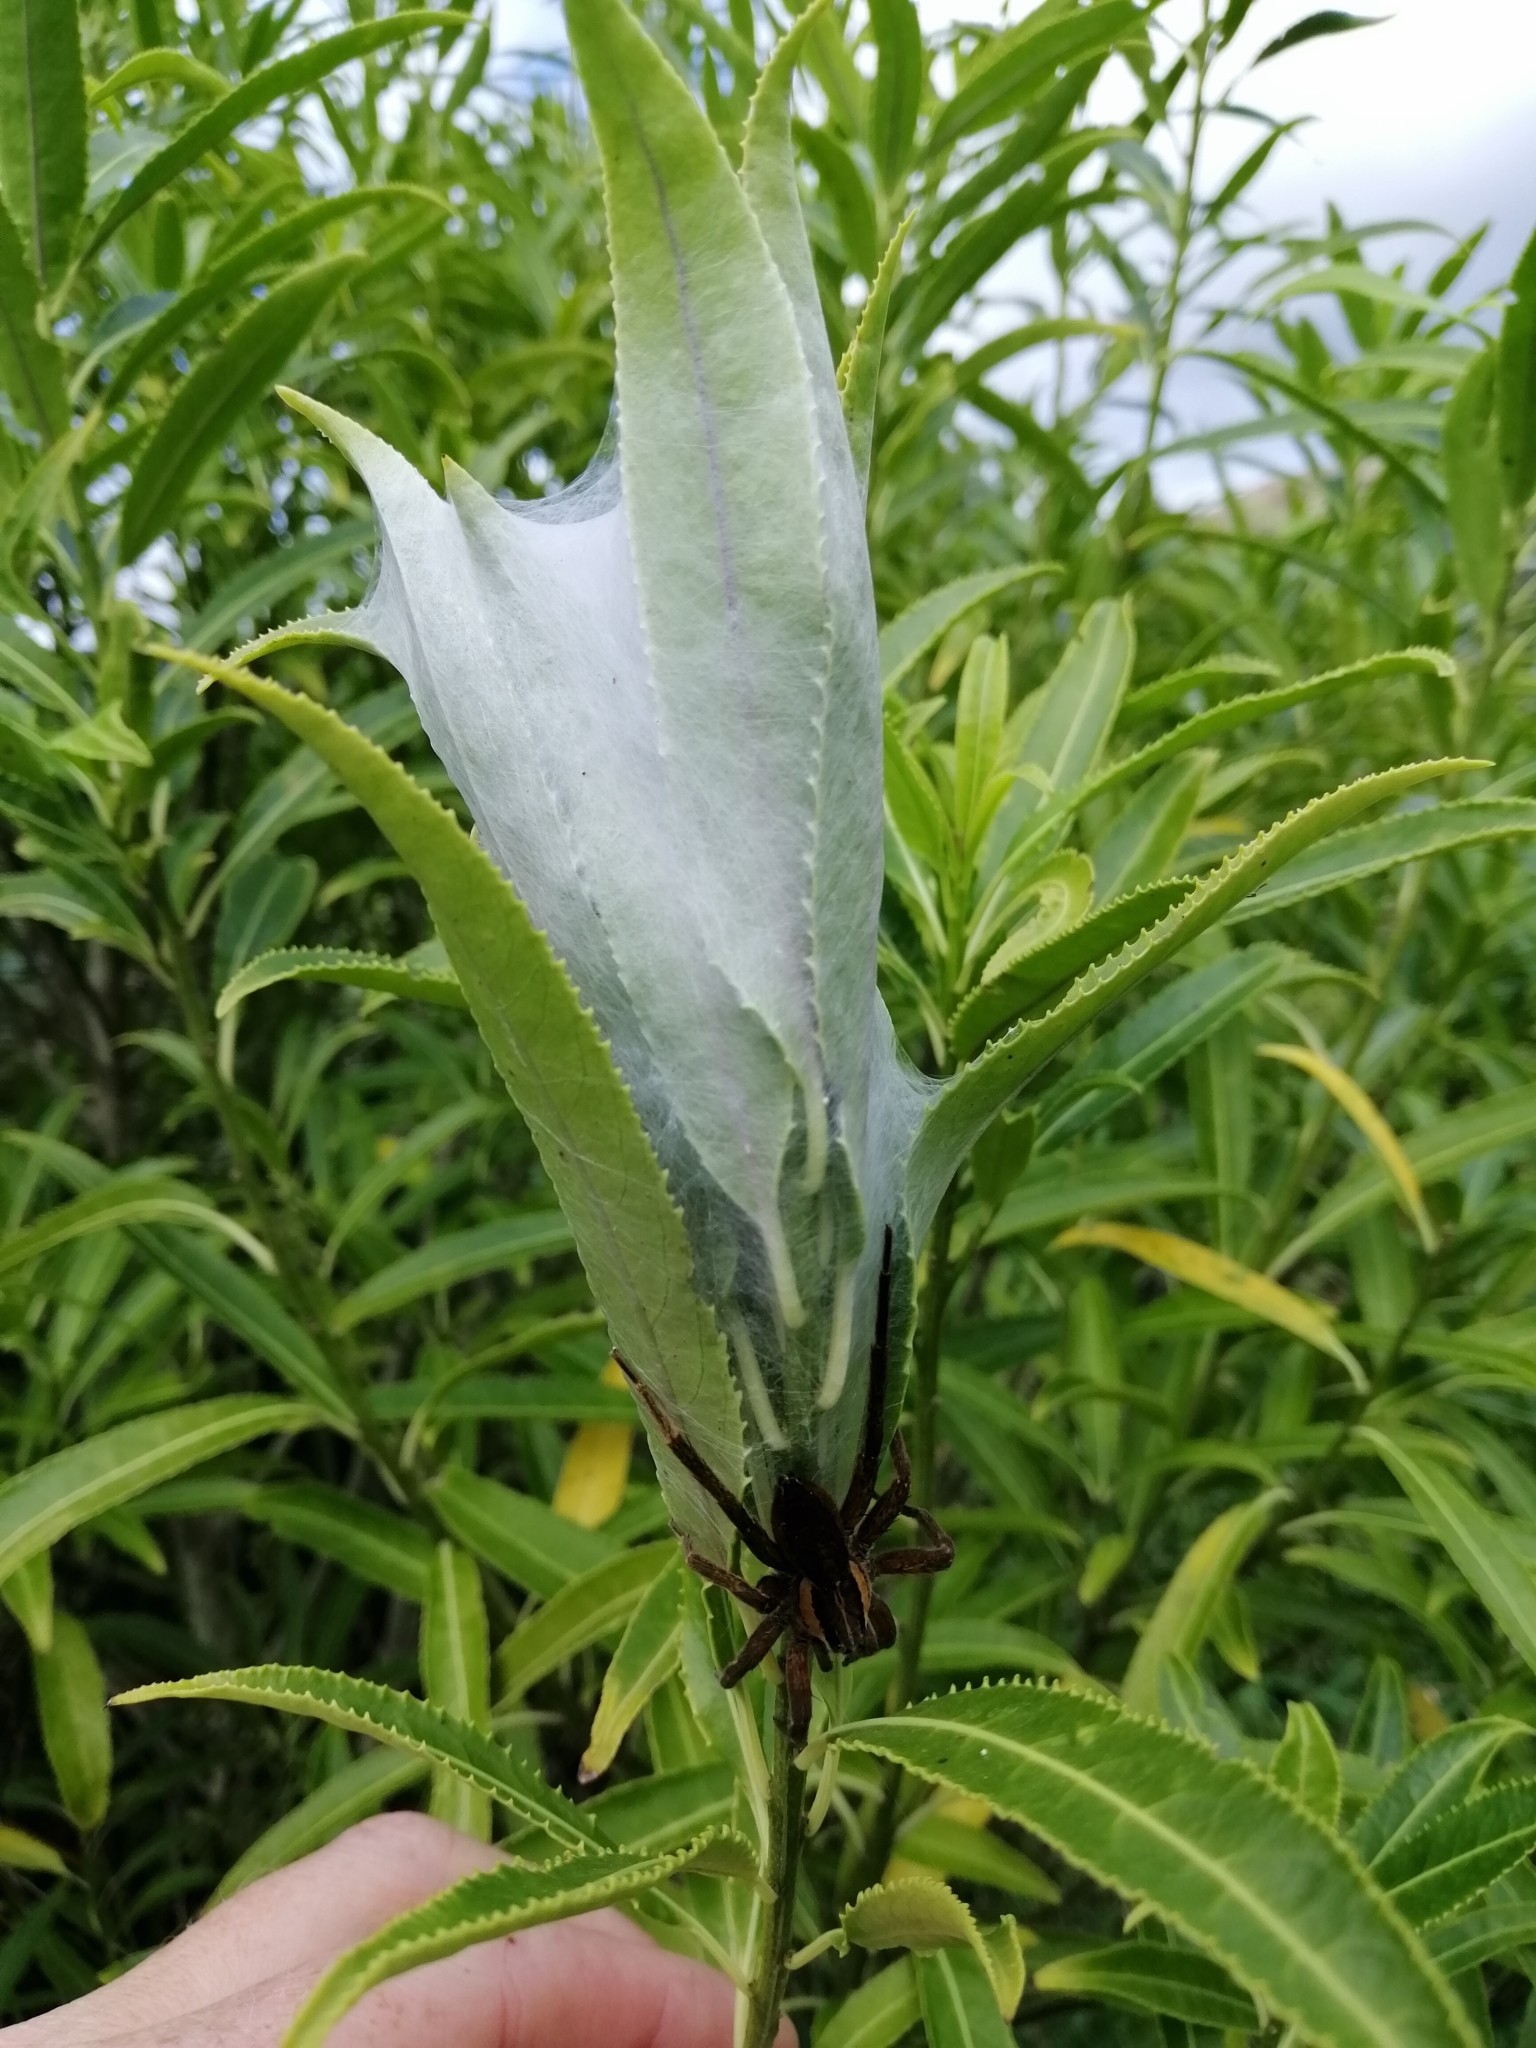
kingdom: Animalia
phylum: Arthropoda
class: Arachnida
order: Araneae
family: Pisauridae
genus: Dolomedes
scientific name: Dolomedes minor
